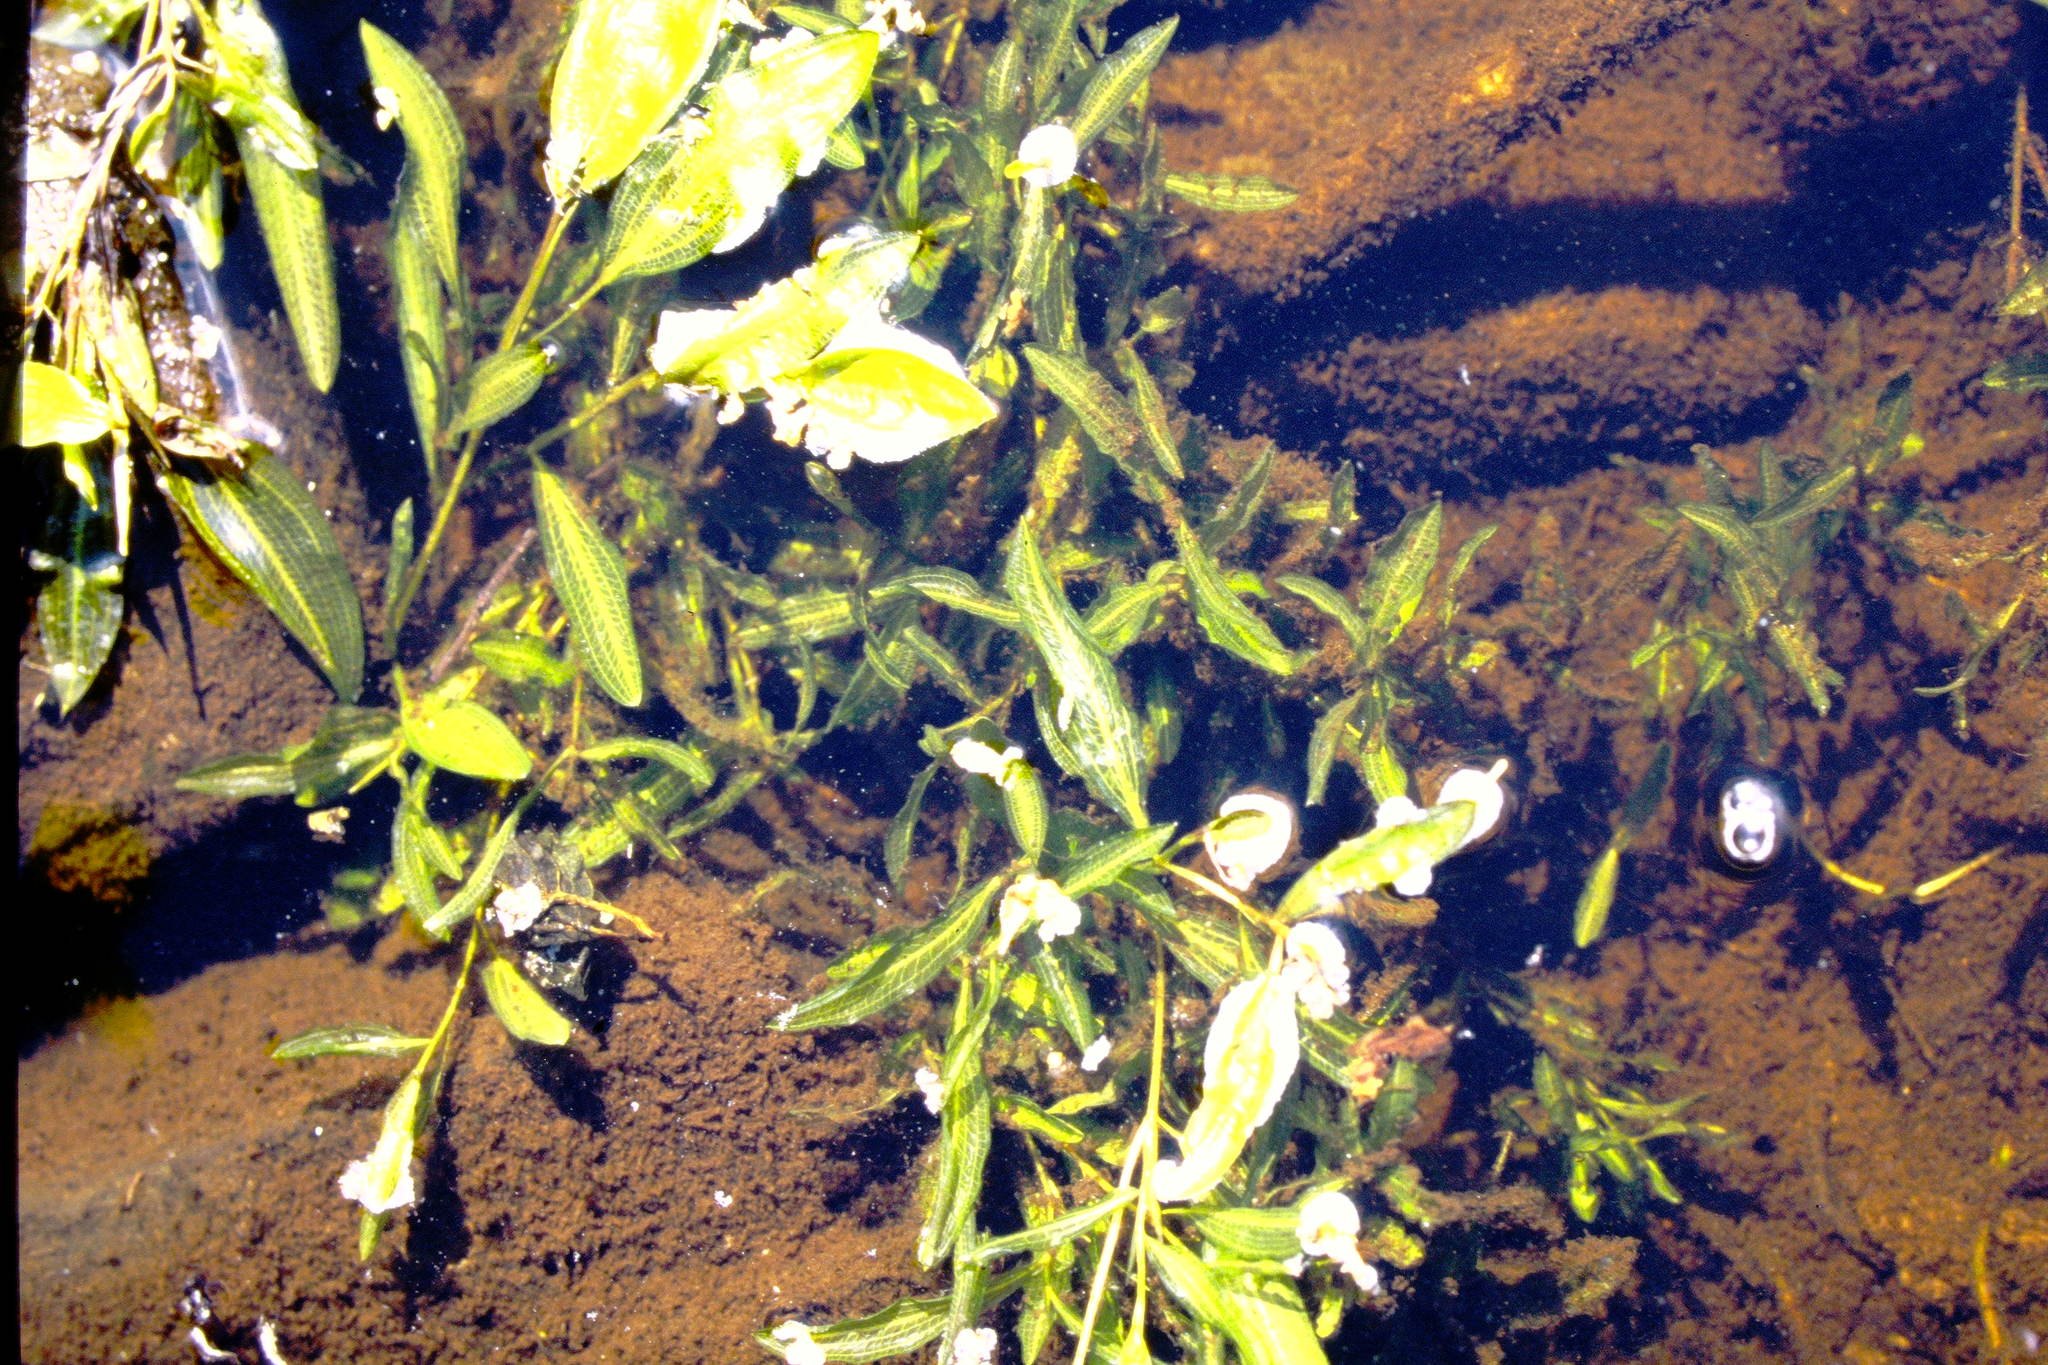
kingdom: Plantae
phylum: Tracheophyta
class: Liliopsida
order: Alismatales
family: Potamogetonaceae
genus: Potamogeton
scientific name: Potamogeton gramineus
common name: Various-leaved pondweed
